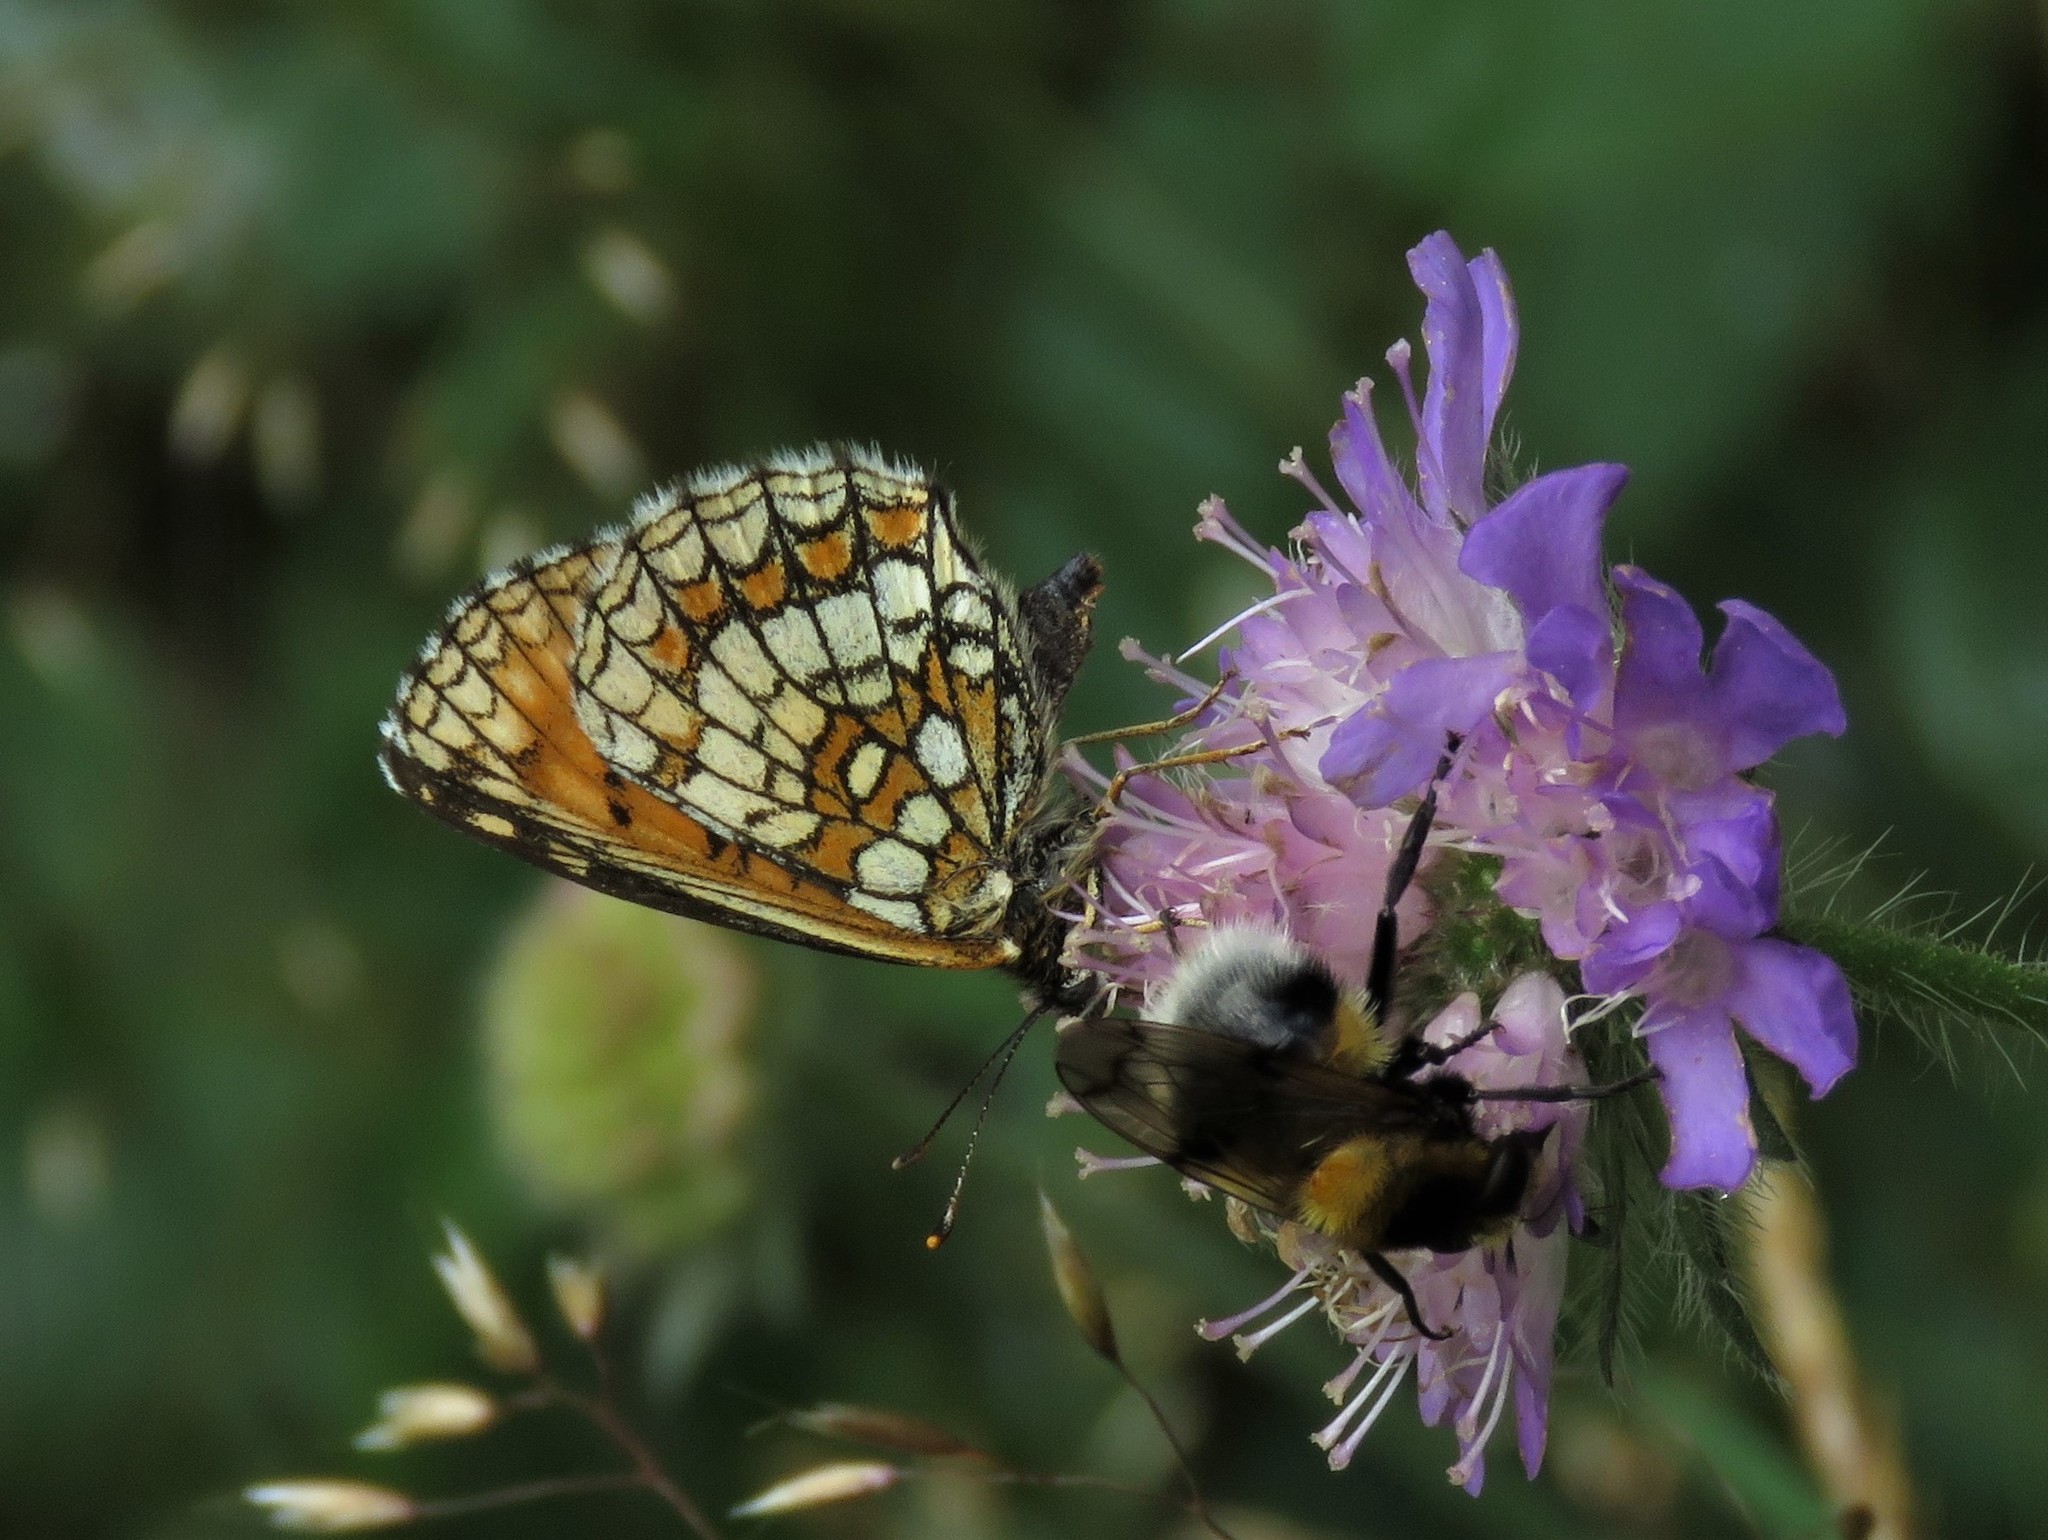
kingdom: Animalia
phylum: Arthropoda
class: Insecta
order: Lepidoptera
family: Nymphalidae
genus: Melitaea
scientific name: Melitaea athalia
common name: Heath fritillary
